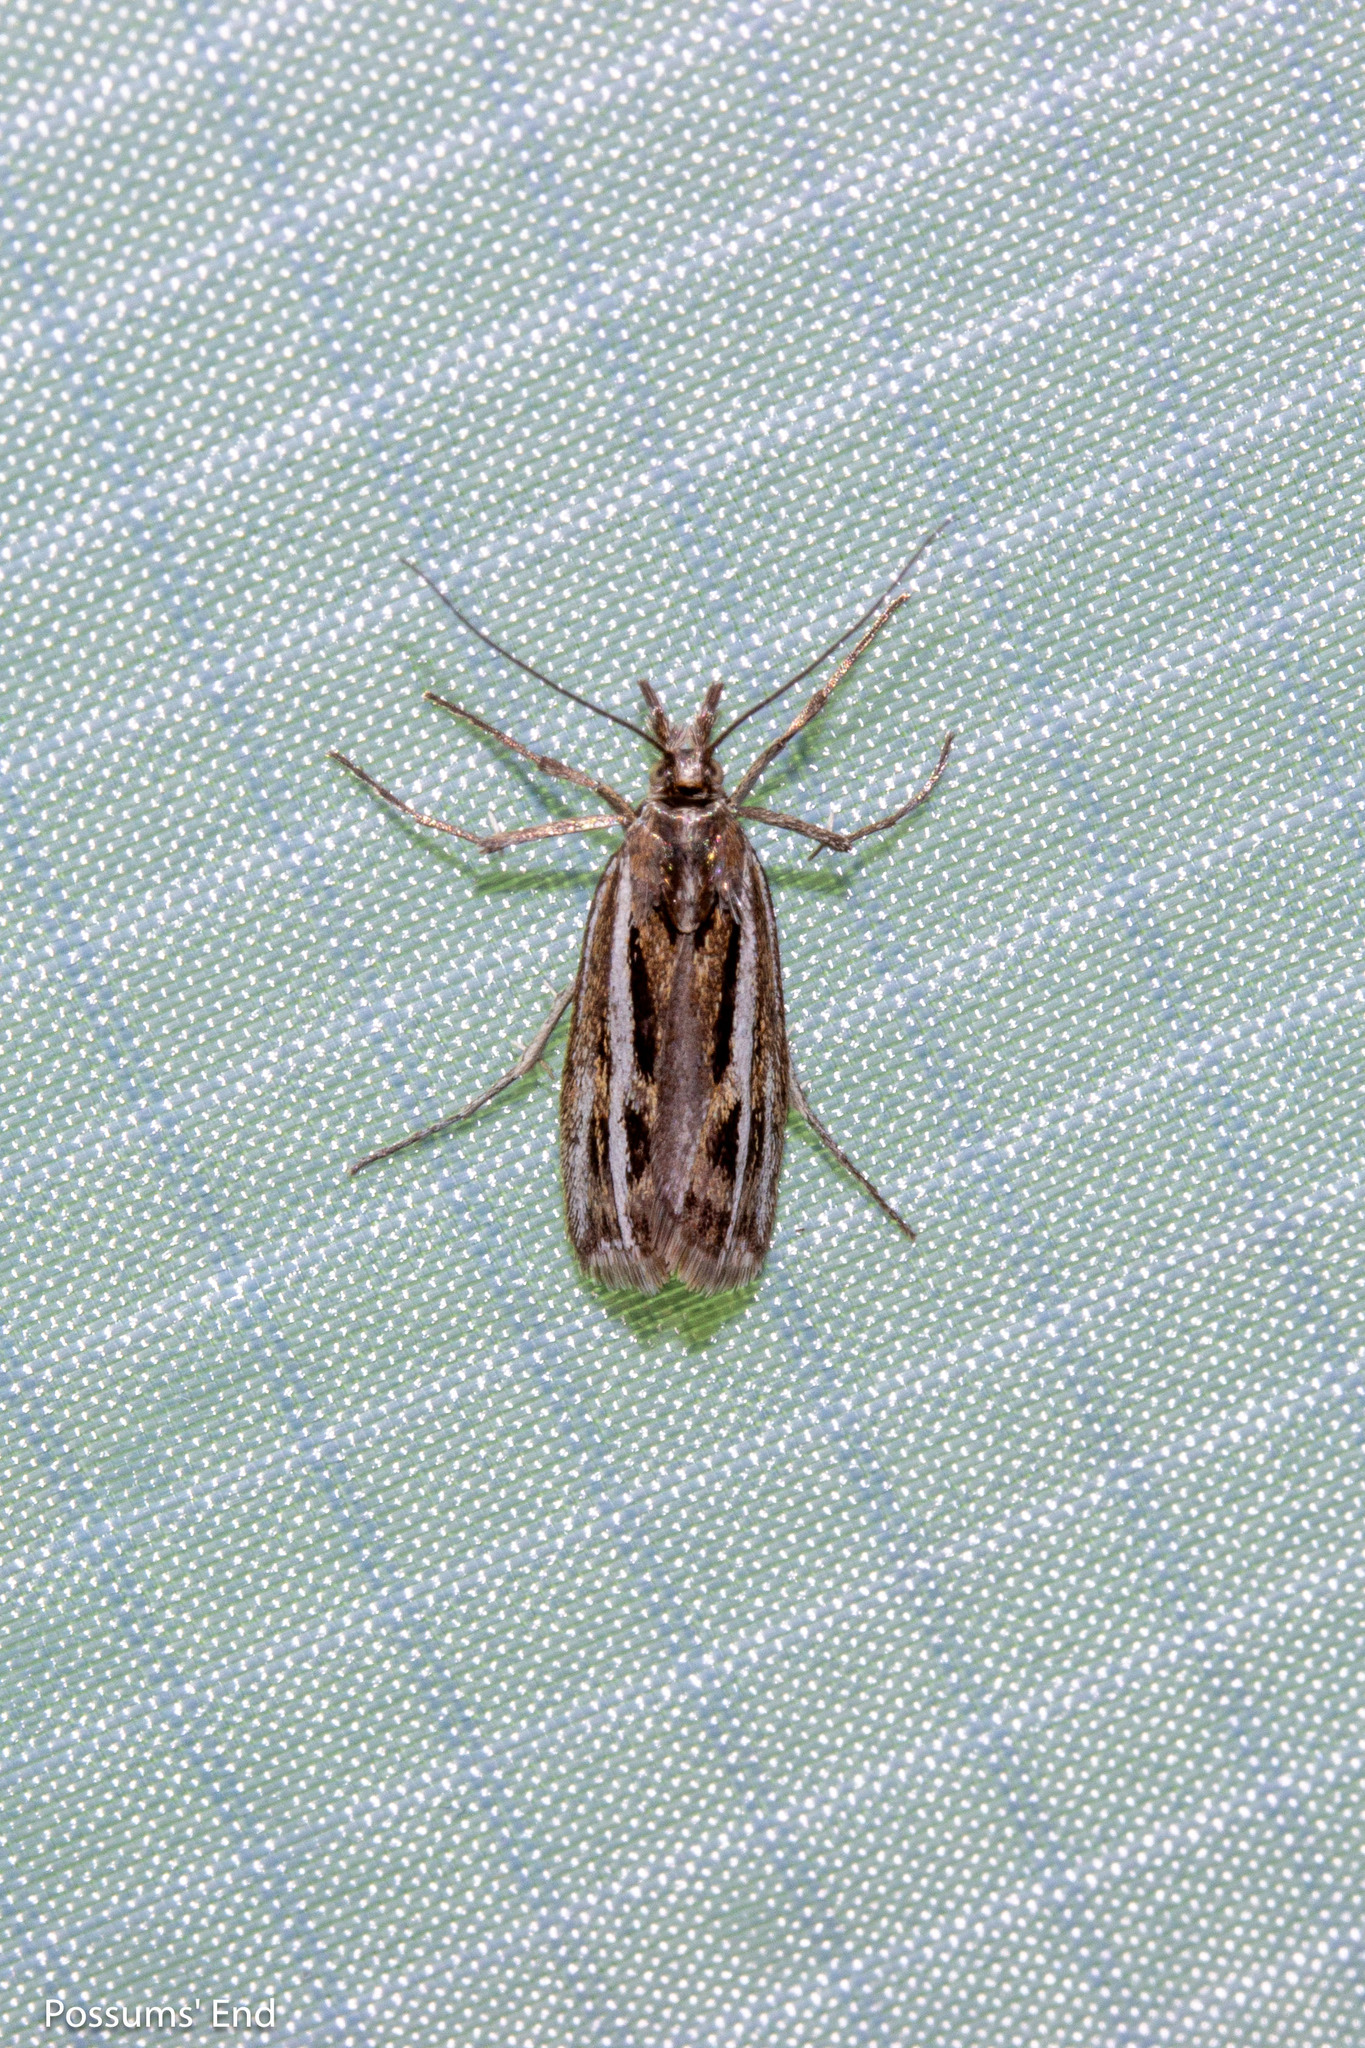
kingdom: Animalia
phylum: Arthropoda
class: Insecta
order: Lepidoptera
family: Crambidae
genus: Orocrambus
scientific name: Orocrambus corruptus
